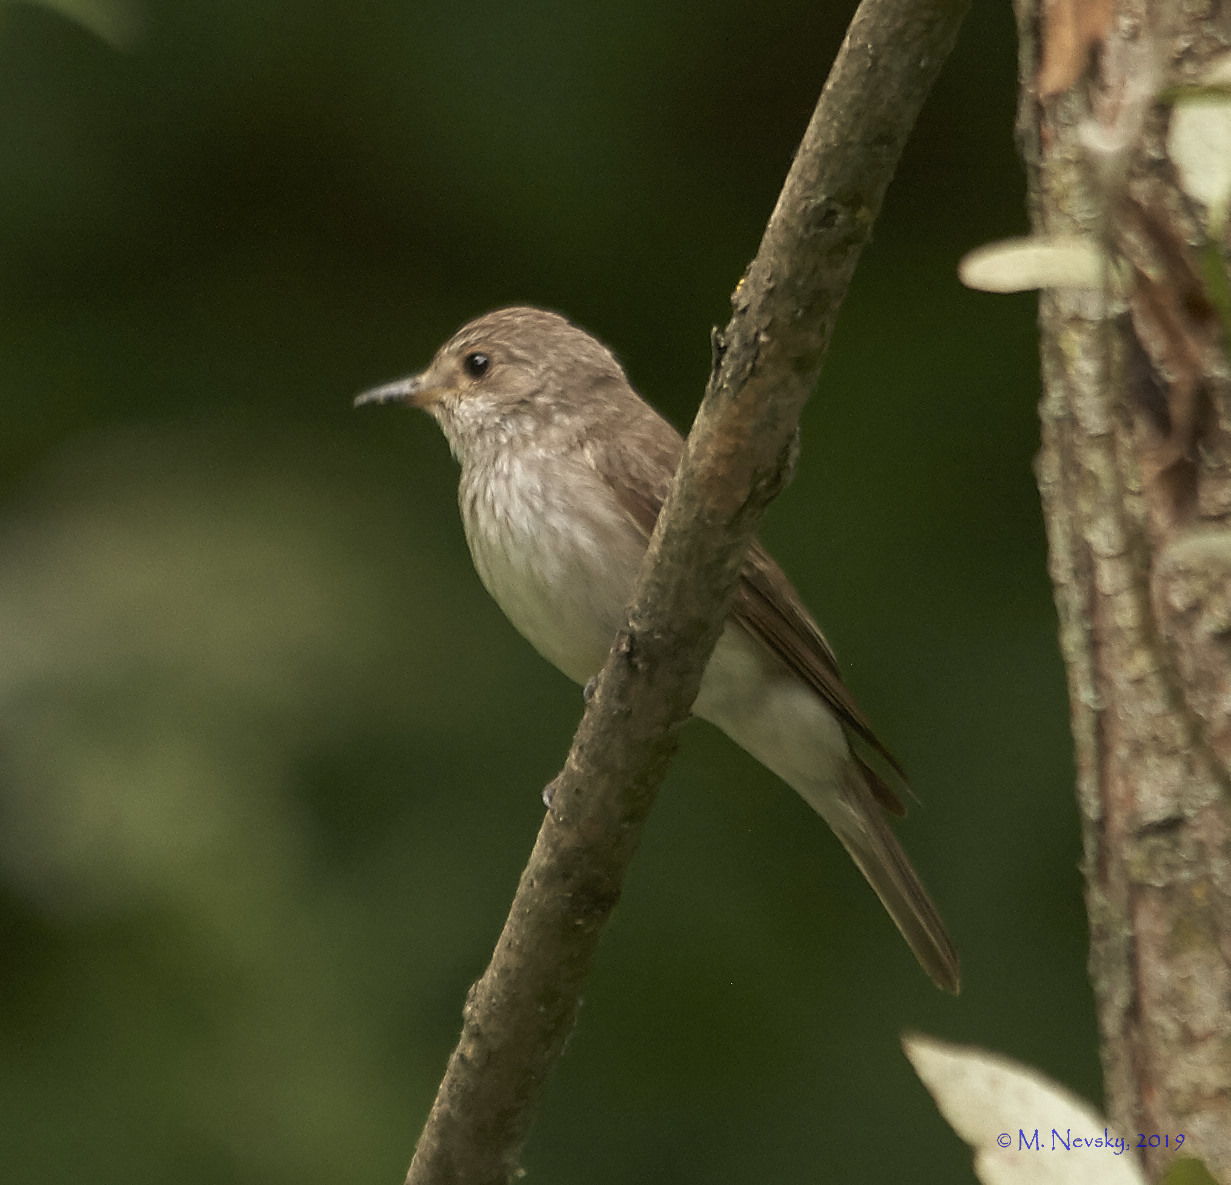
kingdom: Animalia
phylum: Chordata
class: Aves
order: Passeriformes
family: Muscicapidae
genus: Muscicapa
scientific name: Muscicapa striata
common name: Spotted flycatcher
